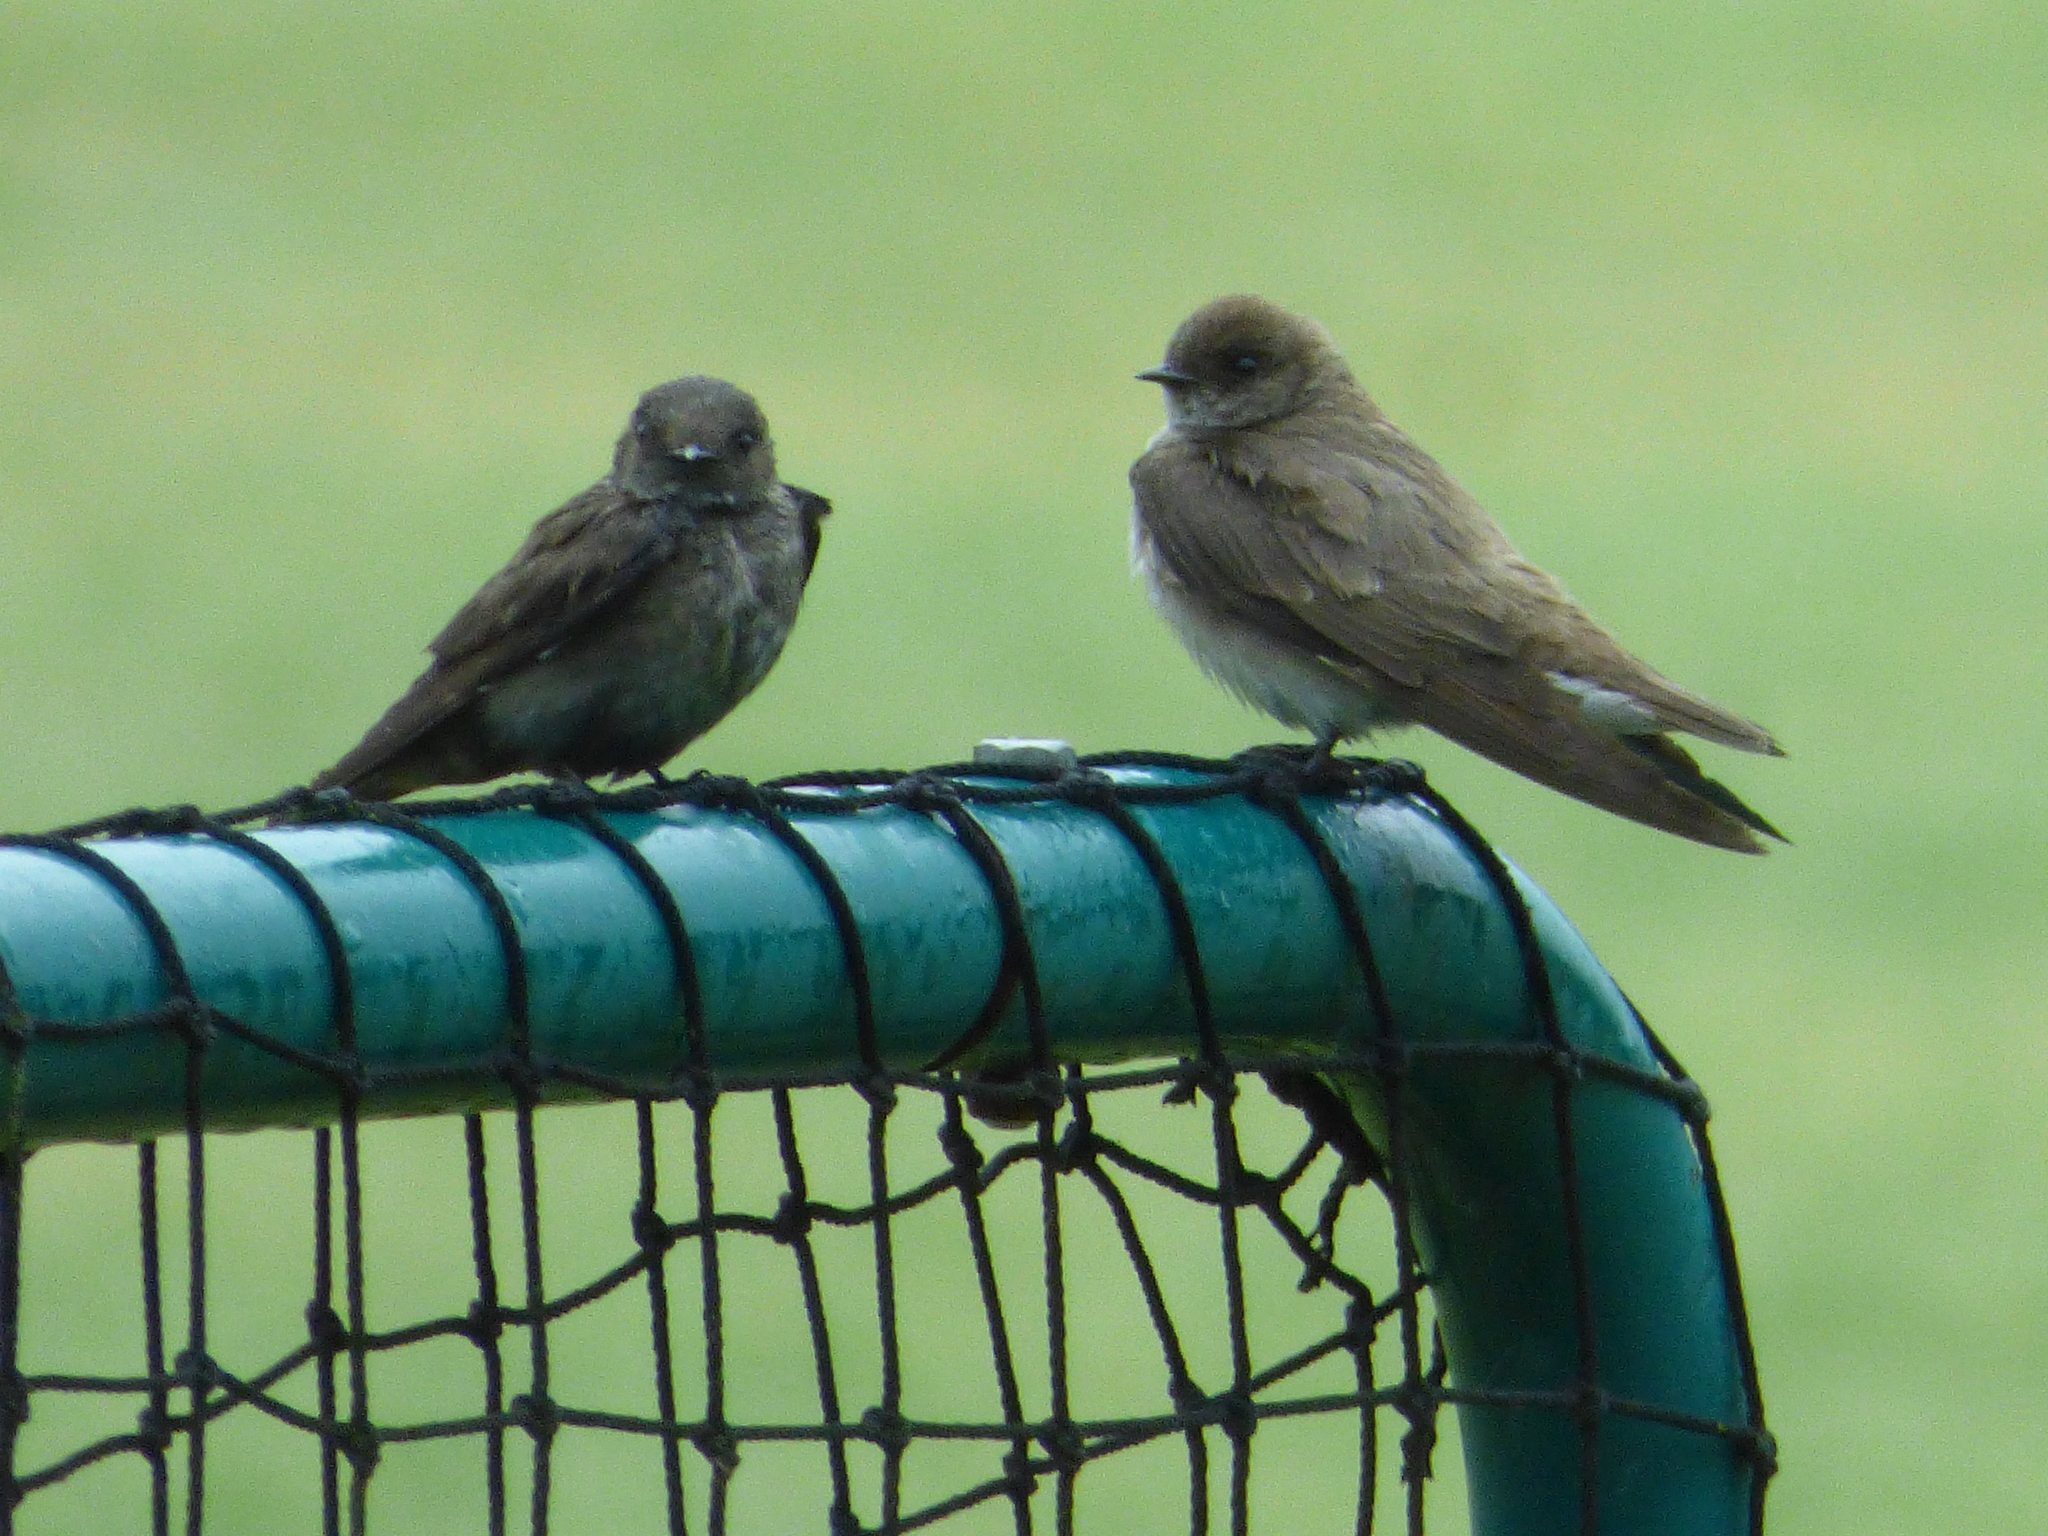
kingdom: Animalia
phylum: Chordata
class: Aves
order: Passeriformes
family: Hirundinidae
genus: Stelgidopteryx
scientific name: Stelgidopteryx serripennis
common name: Northern rough-winged swallow
